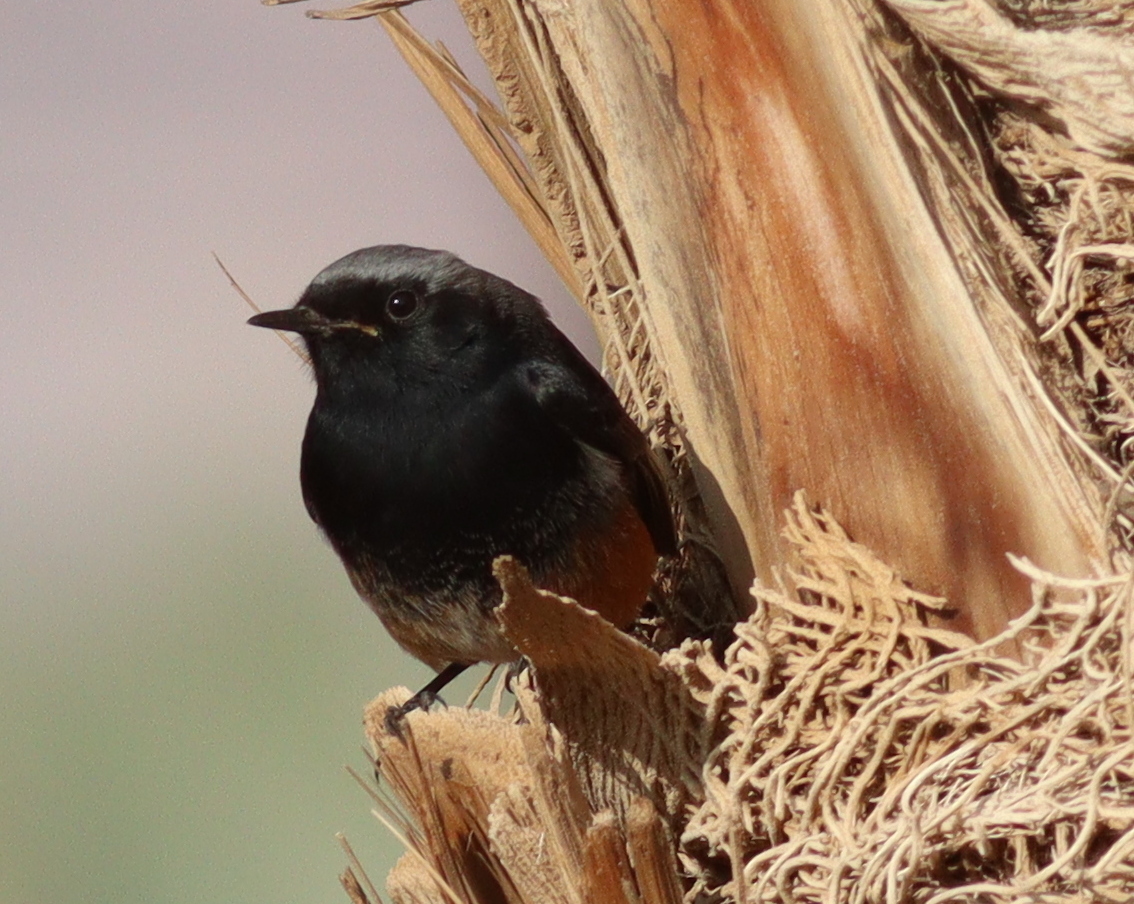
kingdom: Animalia
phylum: Chordata
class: Aves
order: Passeriformes
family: Muscicapidae
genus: Phoenicurus
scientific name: Phoenicurus ochruros
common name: Black redstart
